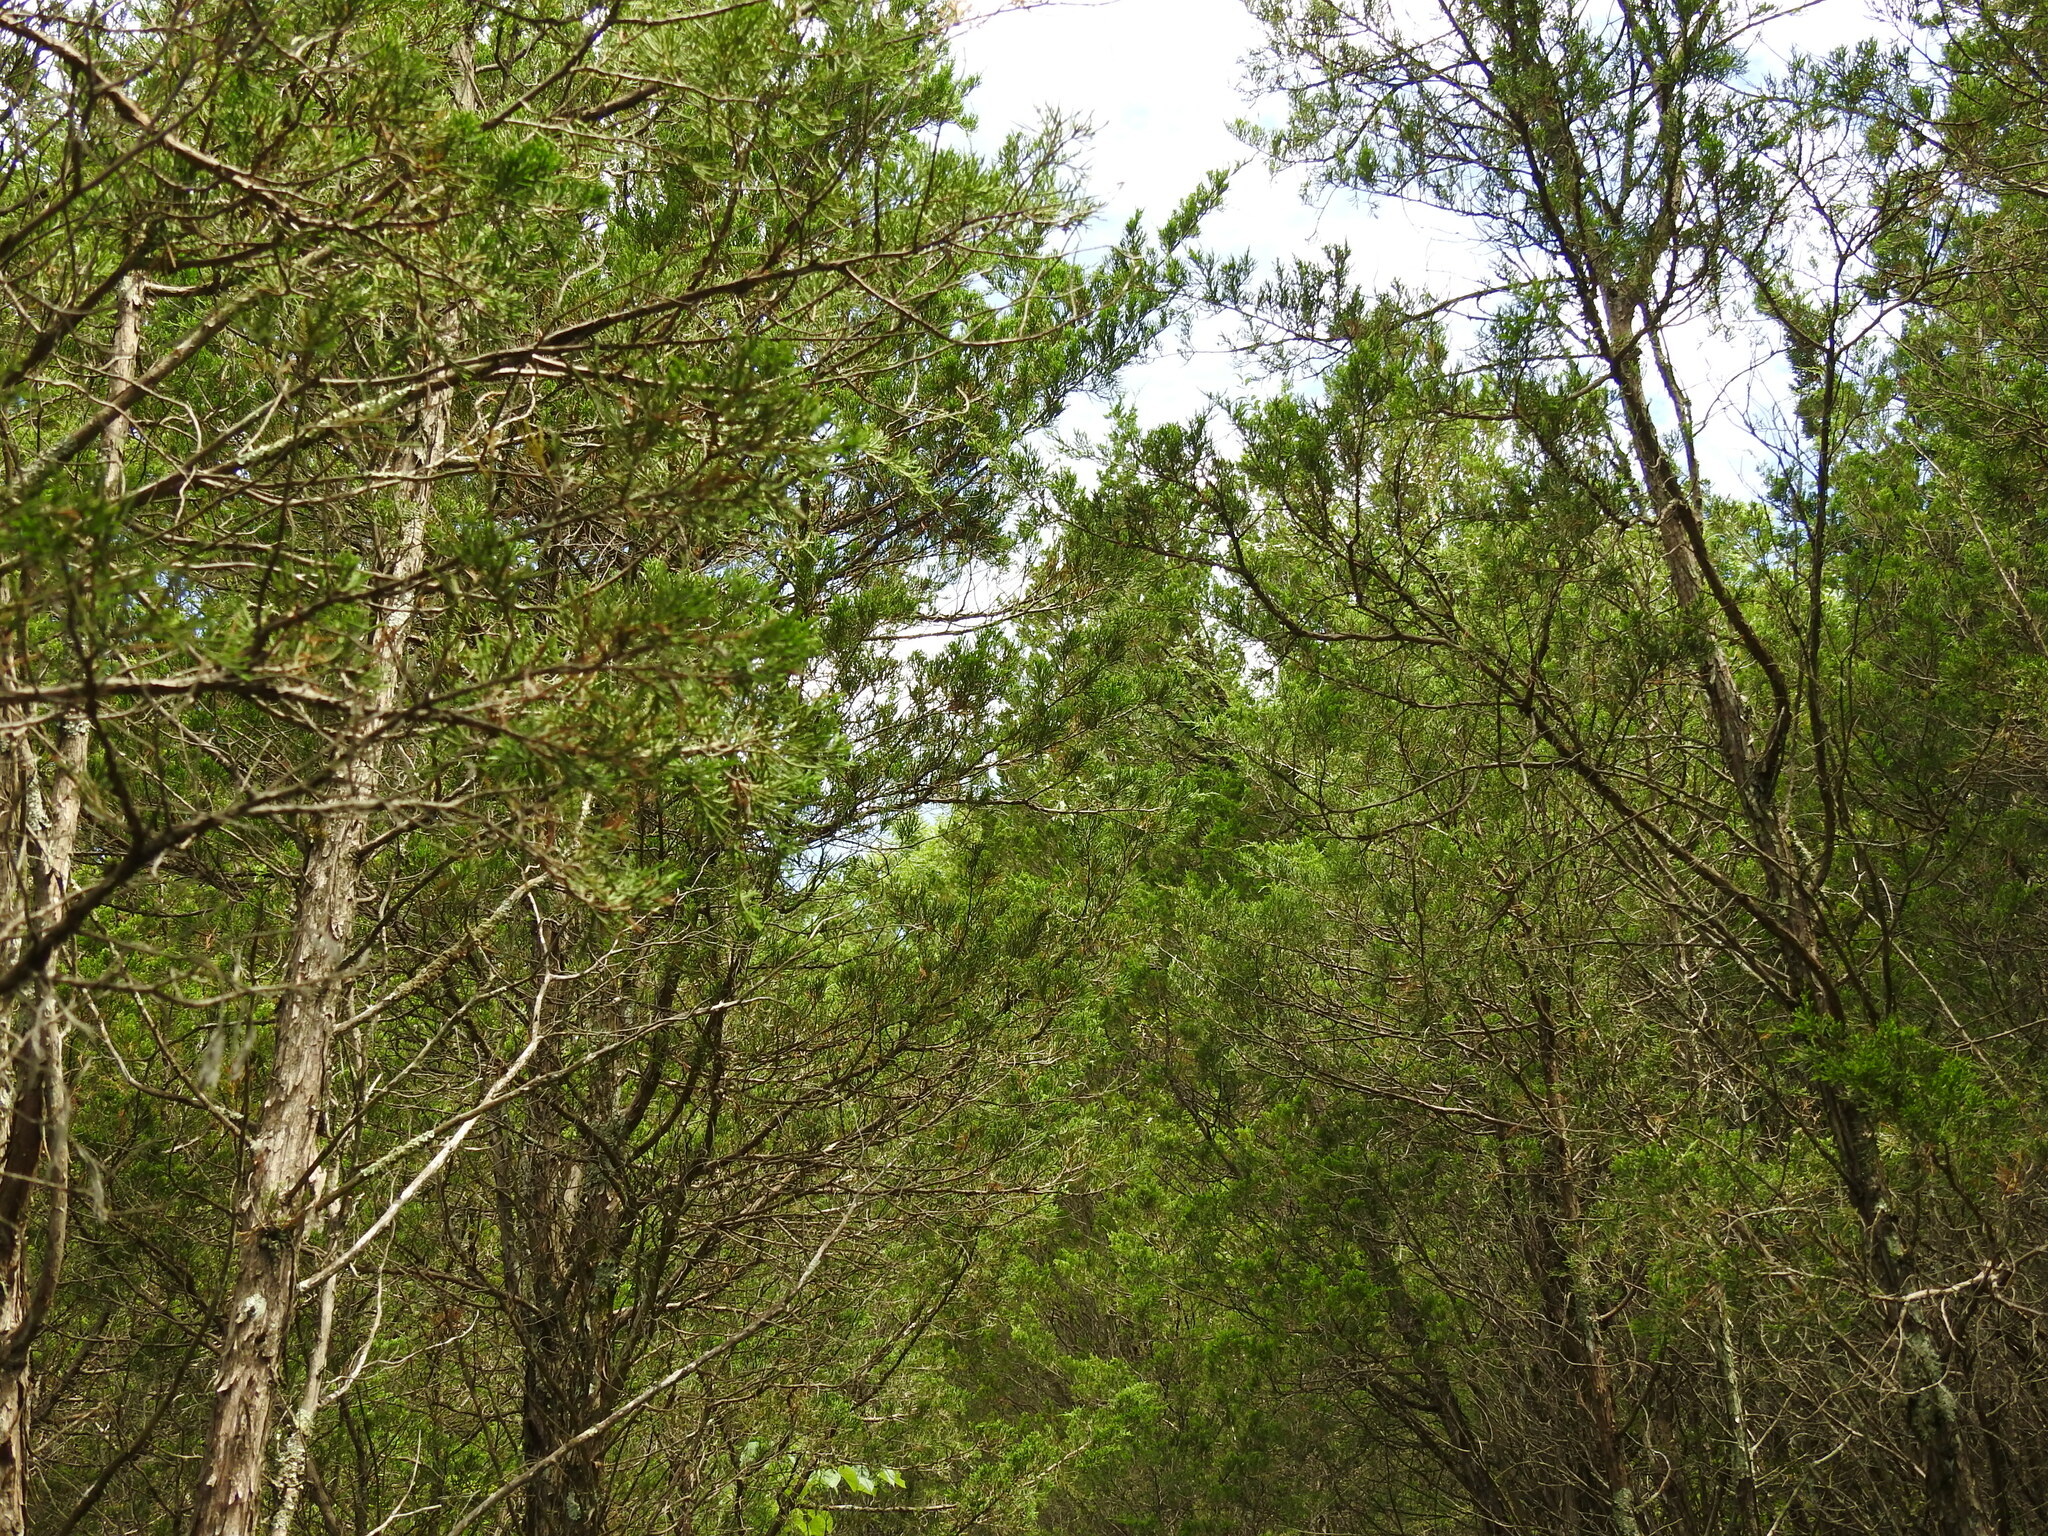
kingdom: Plantae
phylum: Tracheophyta
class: Pinopsida
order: Pinales
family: Cupressaceae
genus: Juniperus
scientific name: Juniperus virginiana
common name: Red juniper
